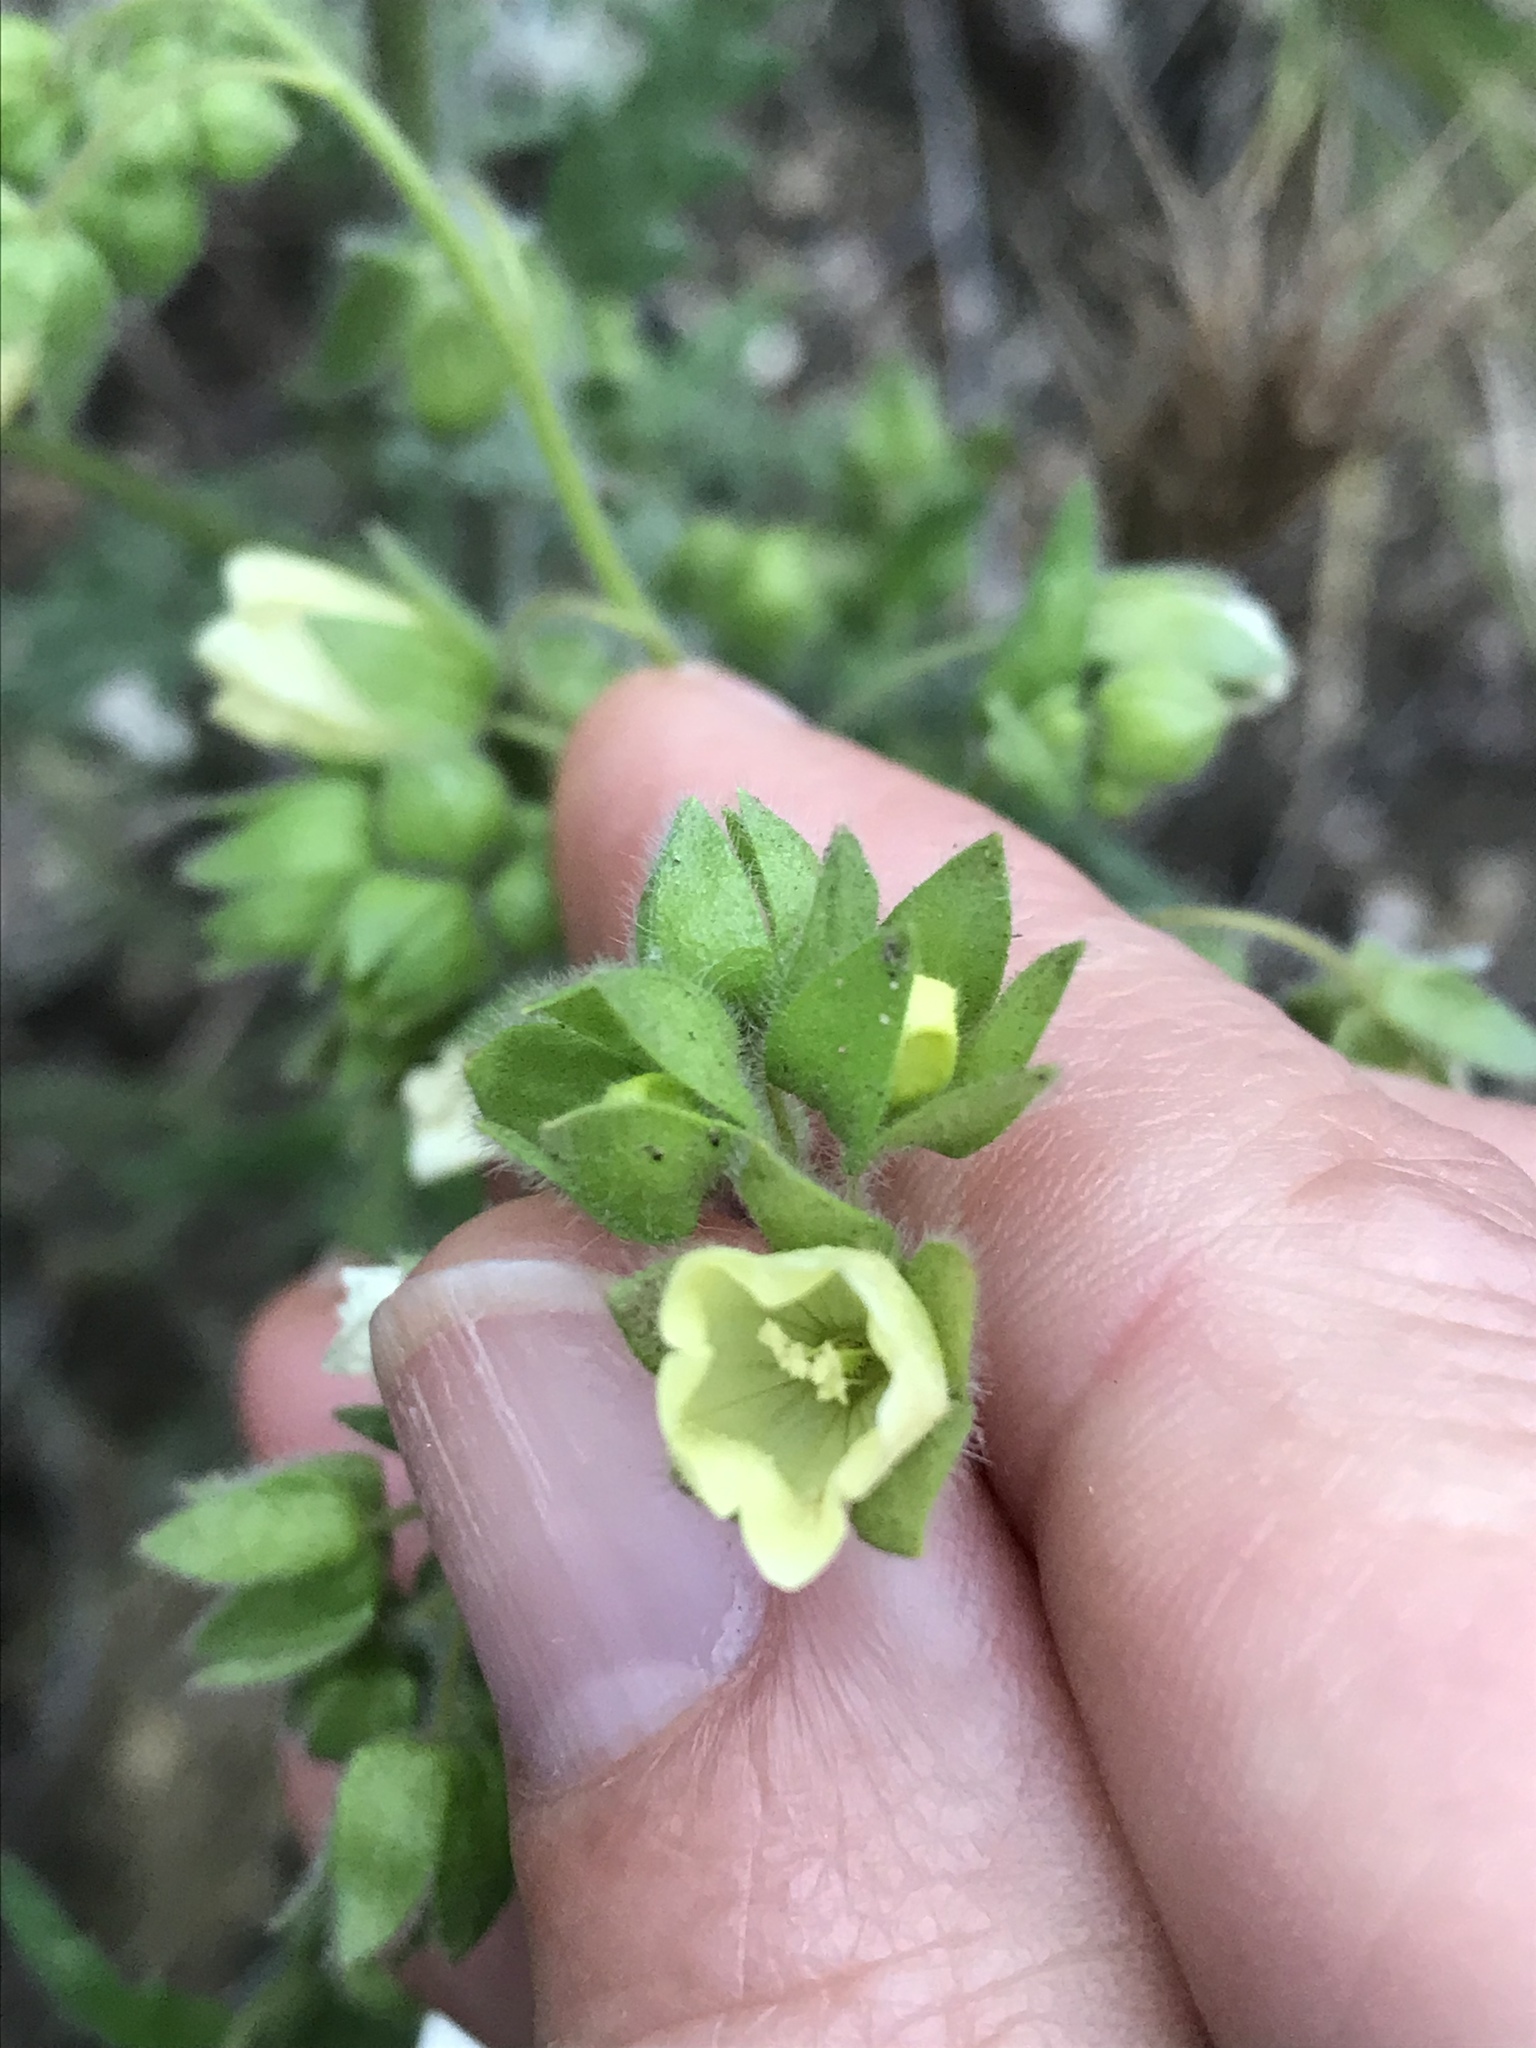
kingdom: Plantae
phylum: Tracheophyta
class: Magnoliopsida
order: Boraginales
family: Hydrophyllaceae
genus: Emmenanthe
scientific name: Emmenanthe penduliflora
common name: Whispering-bells
